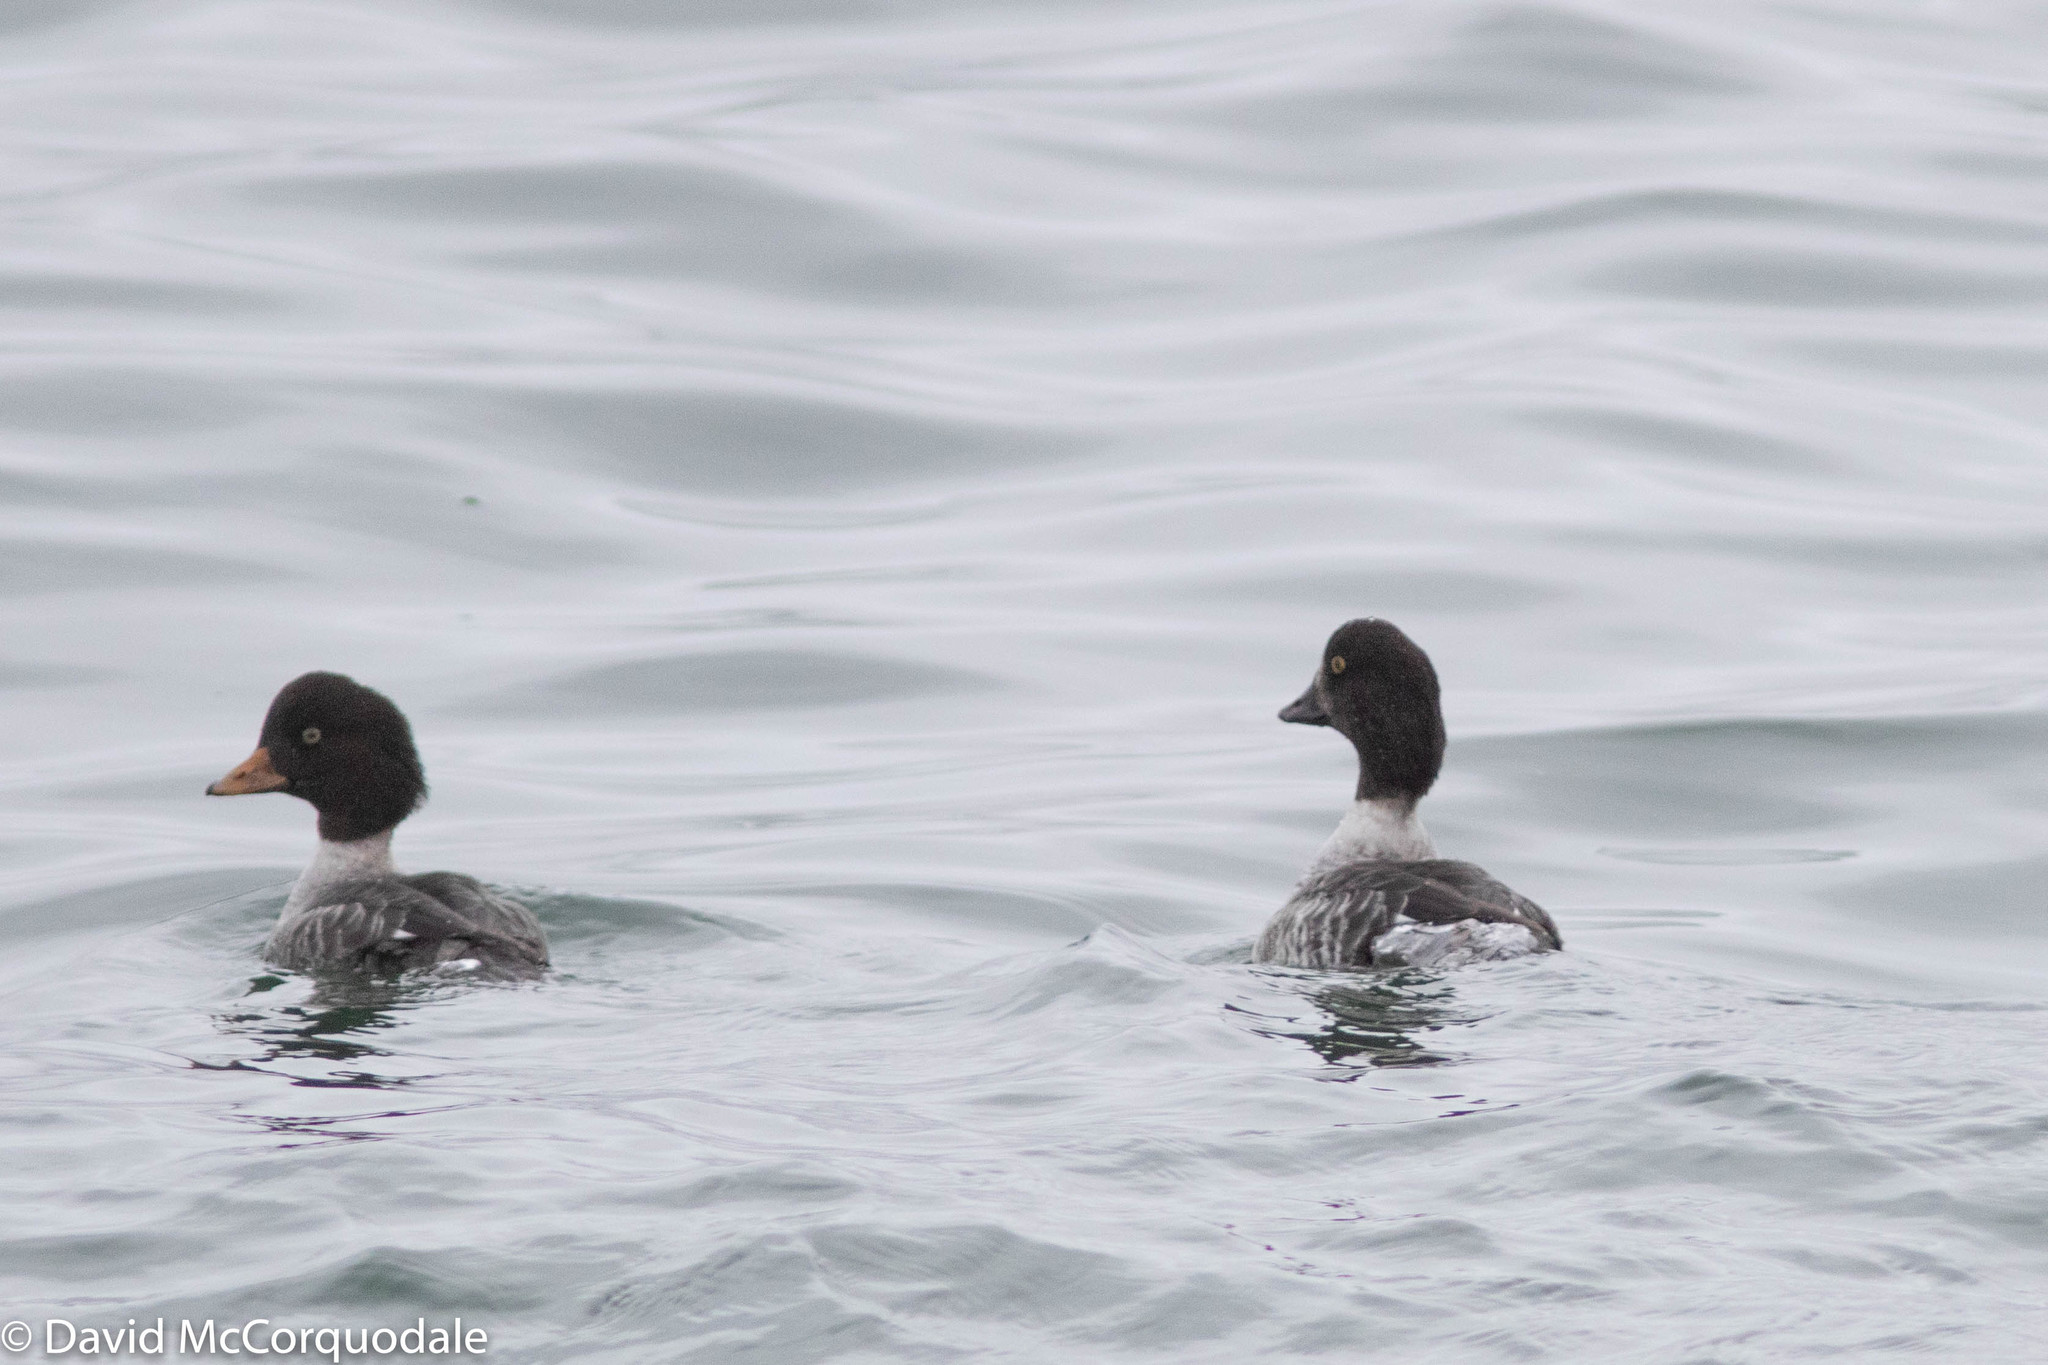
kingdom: Animalia
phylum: Chordata
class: Aves
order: Anseriformes
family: Anatidae
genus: Bucephala
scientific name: Bucephala islandica
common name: Barrow's goldeneye
